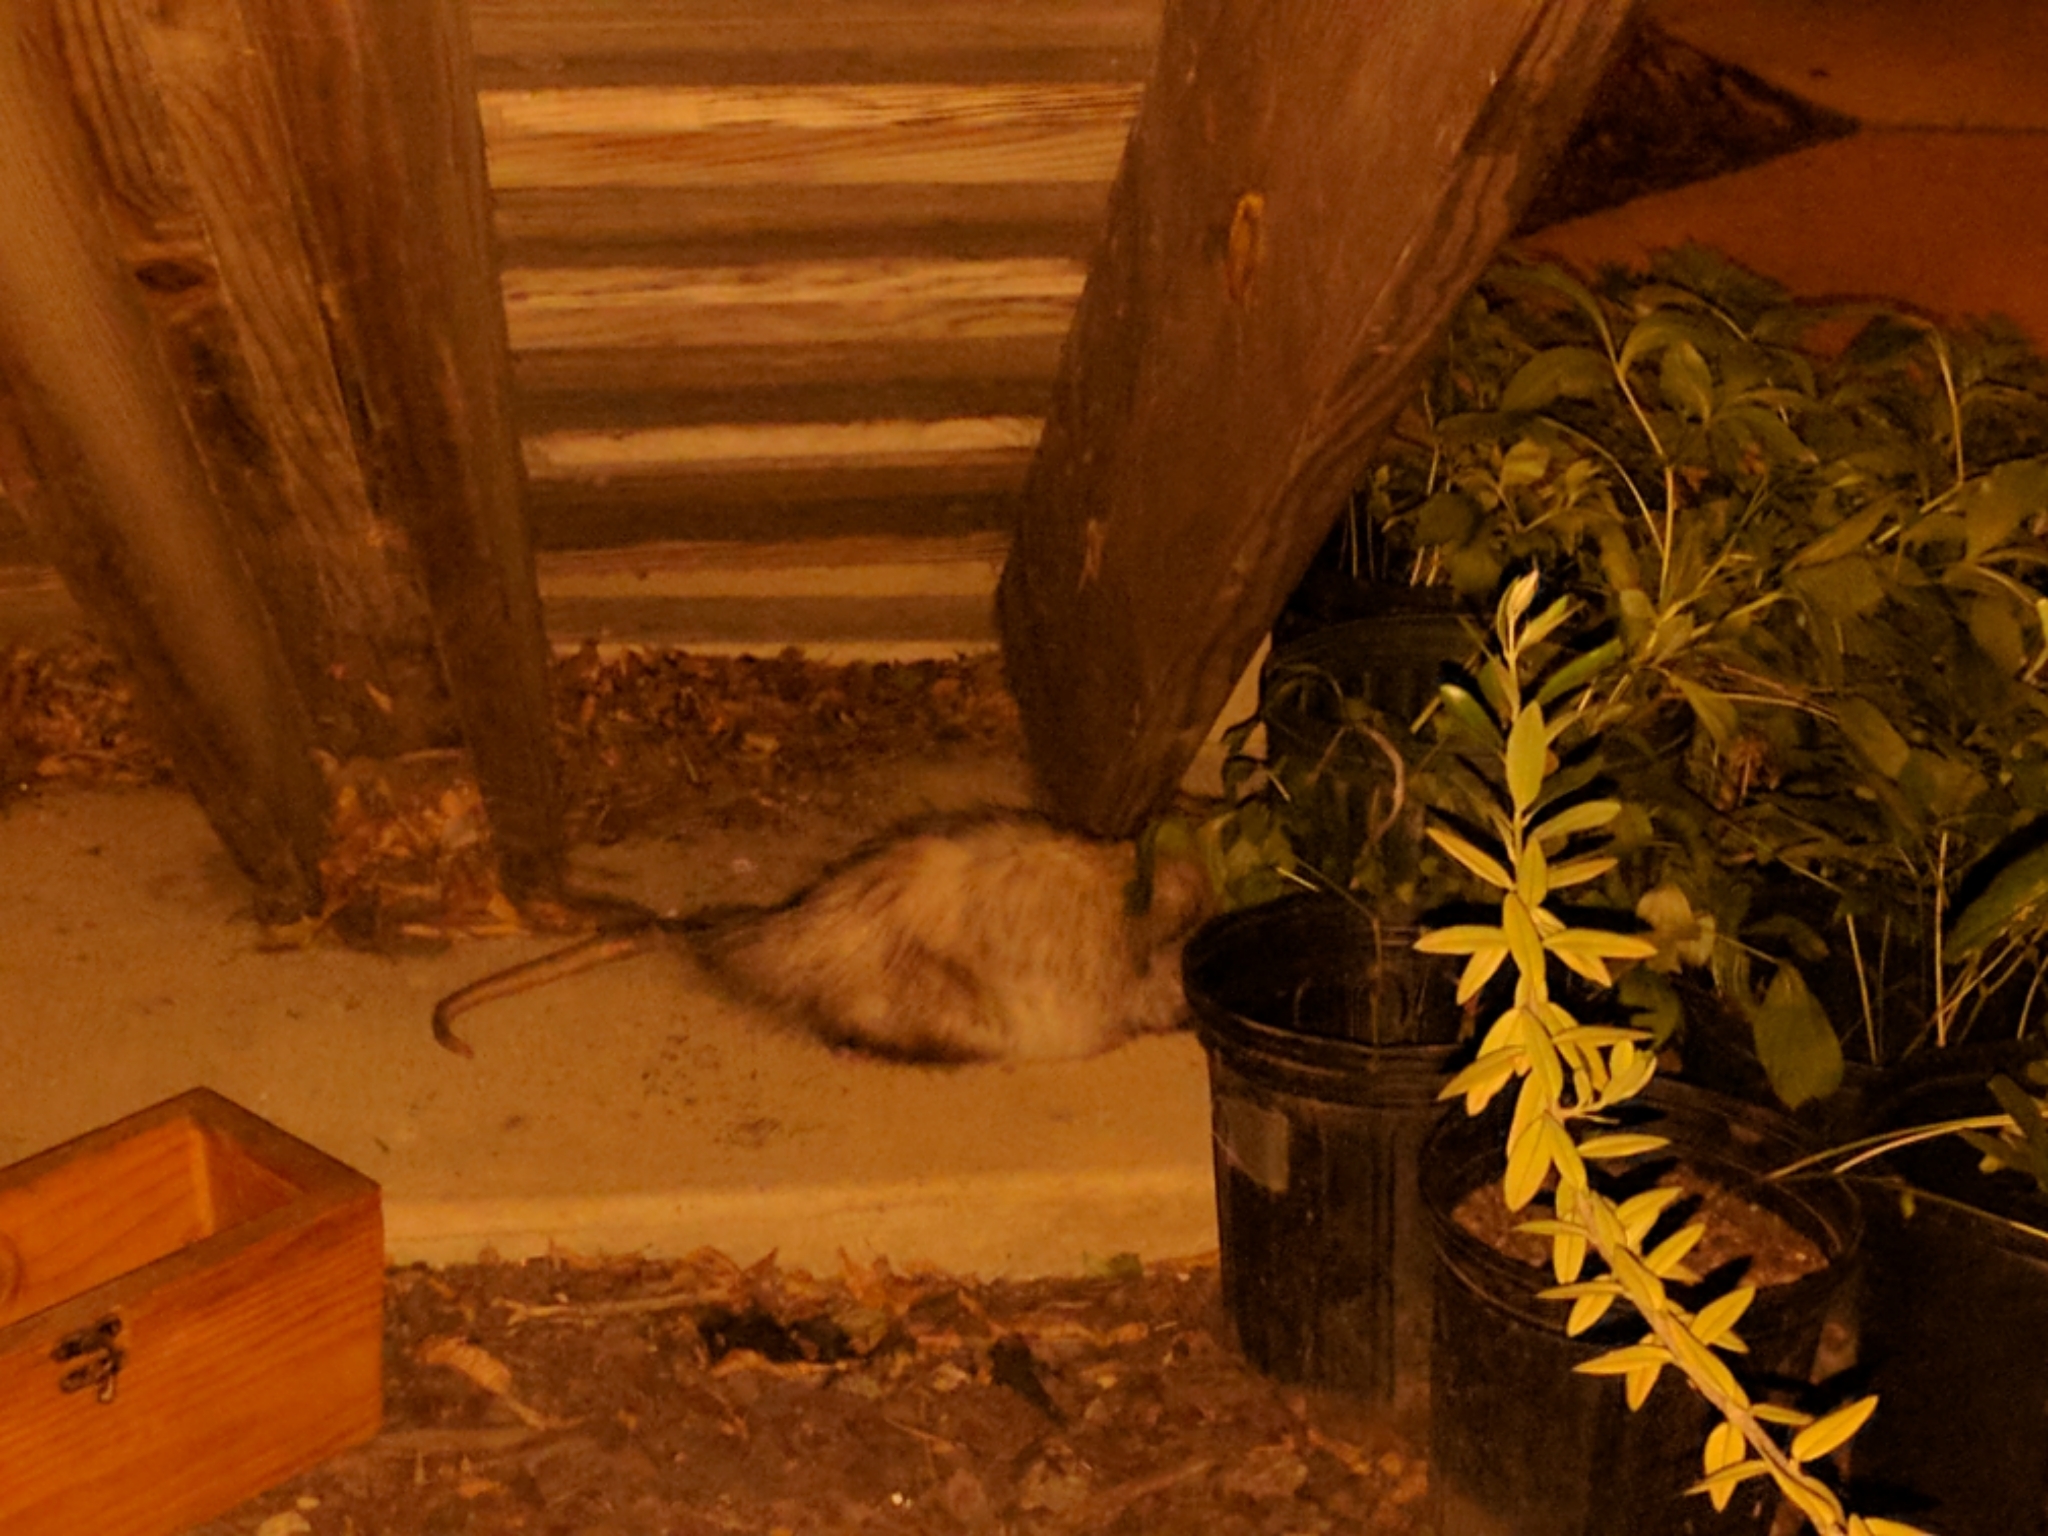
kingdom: Animalia
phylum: Chordata
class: Mammalia
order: Didelphimorphia
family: Didelphidae
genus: Didelphis
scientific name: Didelphis virginiana
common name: Virginia opossum
